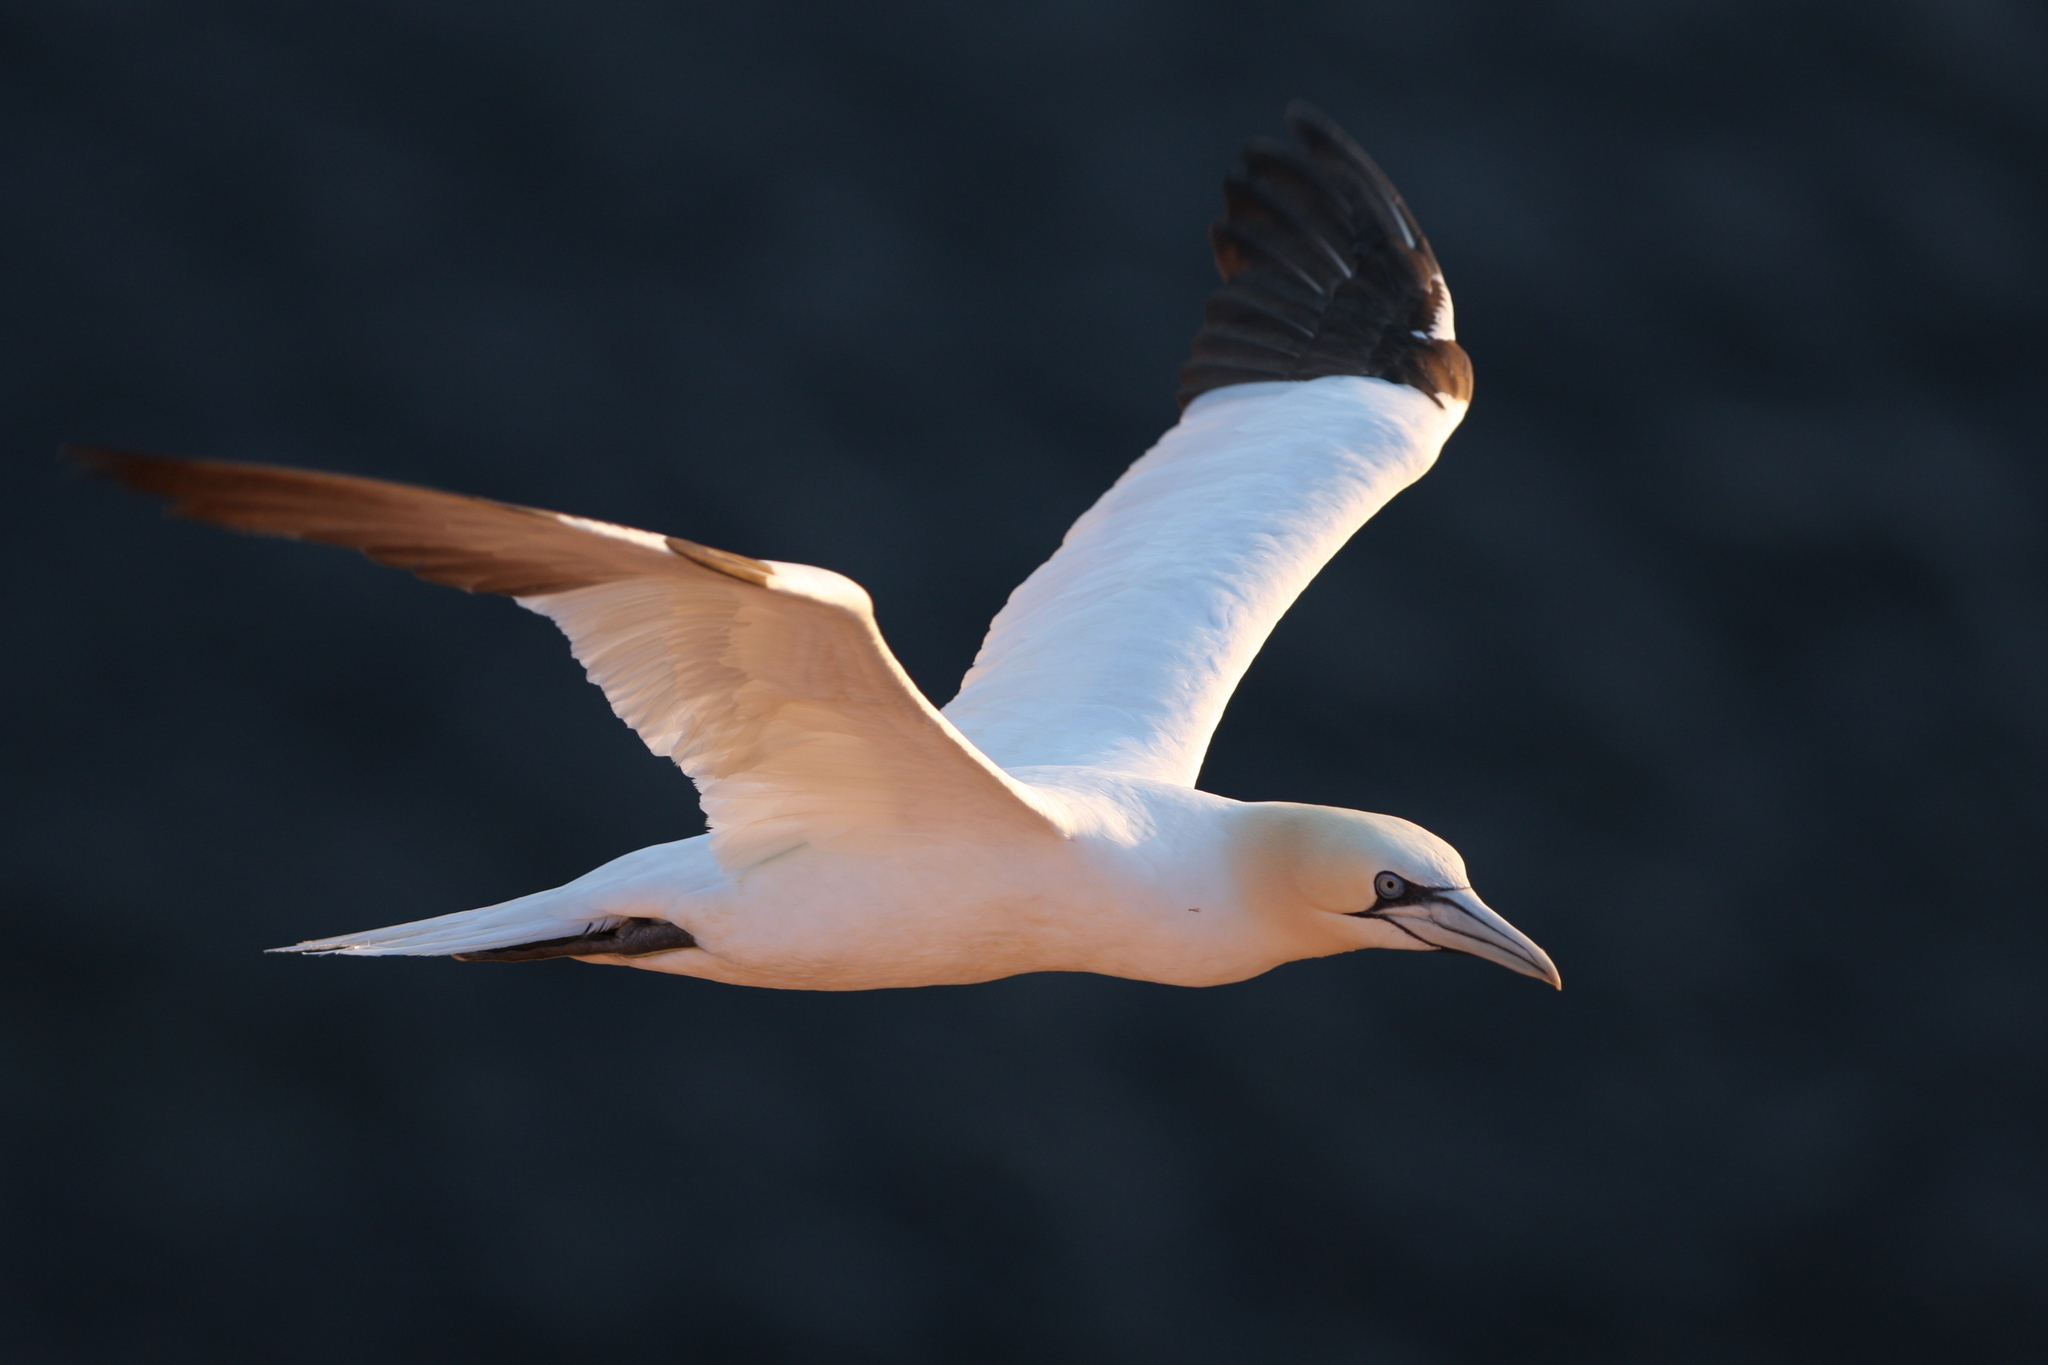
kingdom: Animalia
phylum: Chordata
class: Aves
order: Suliformes
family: Sulidae
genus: Morus
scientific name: Morus bassanus
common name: Northern gannet
